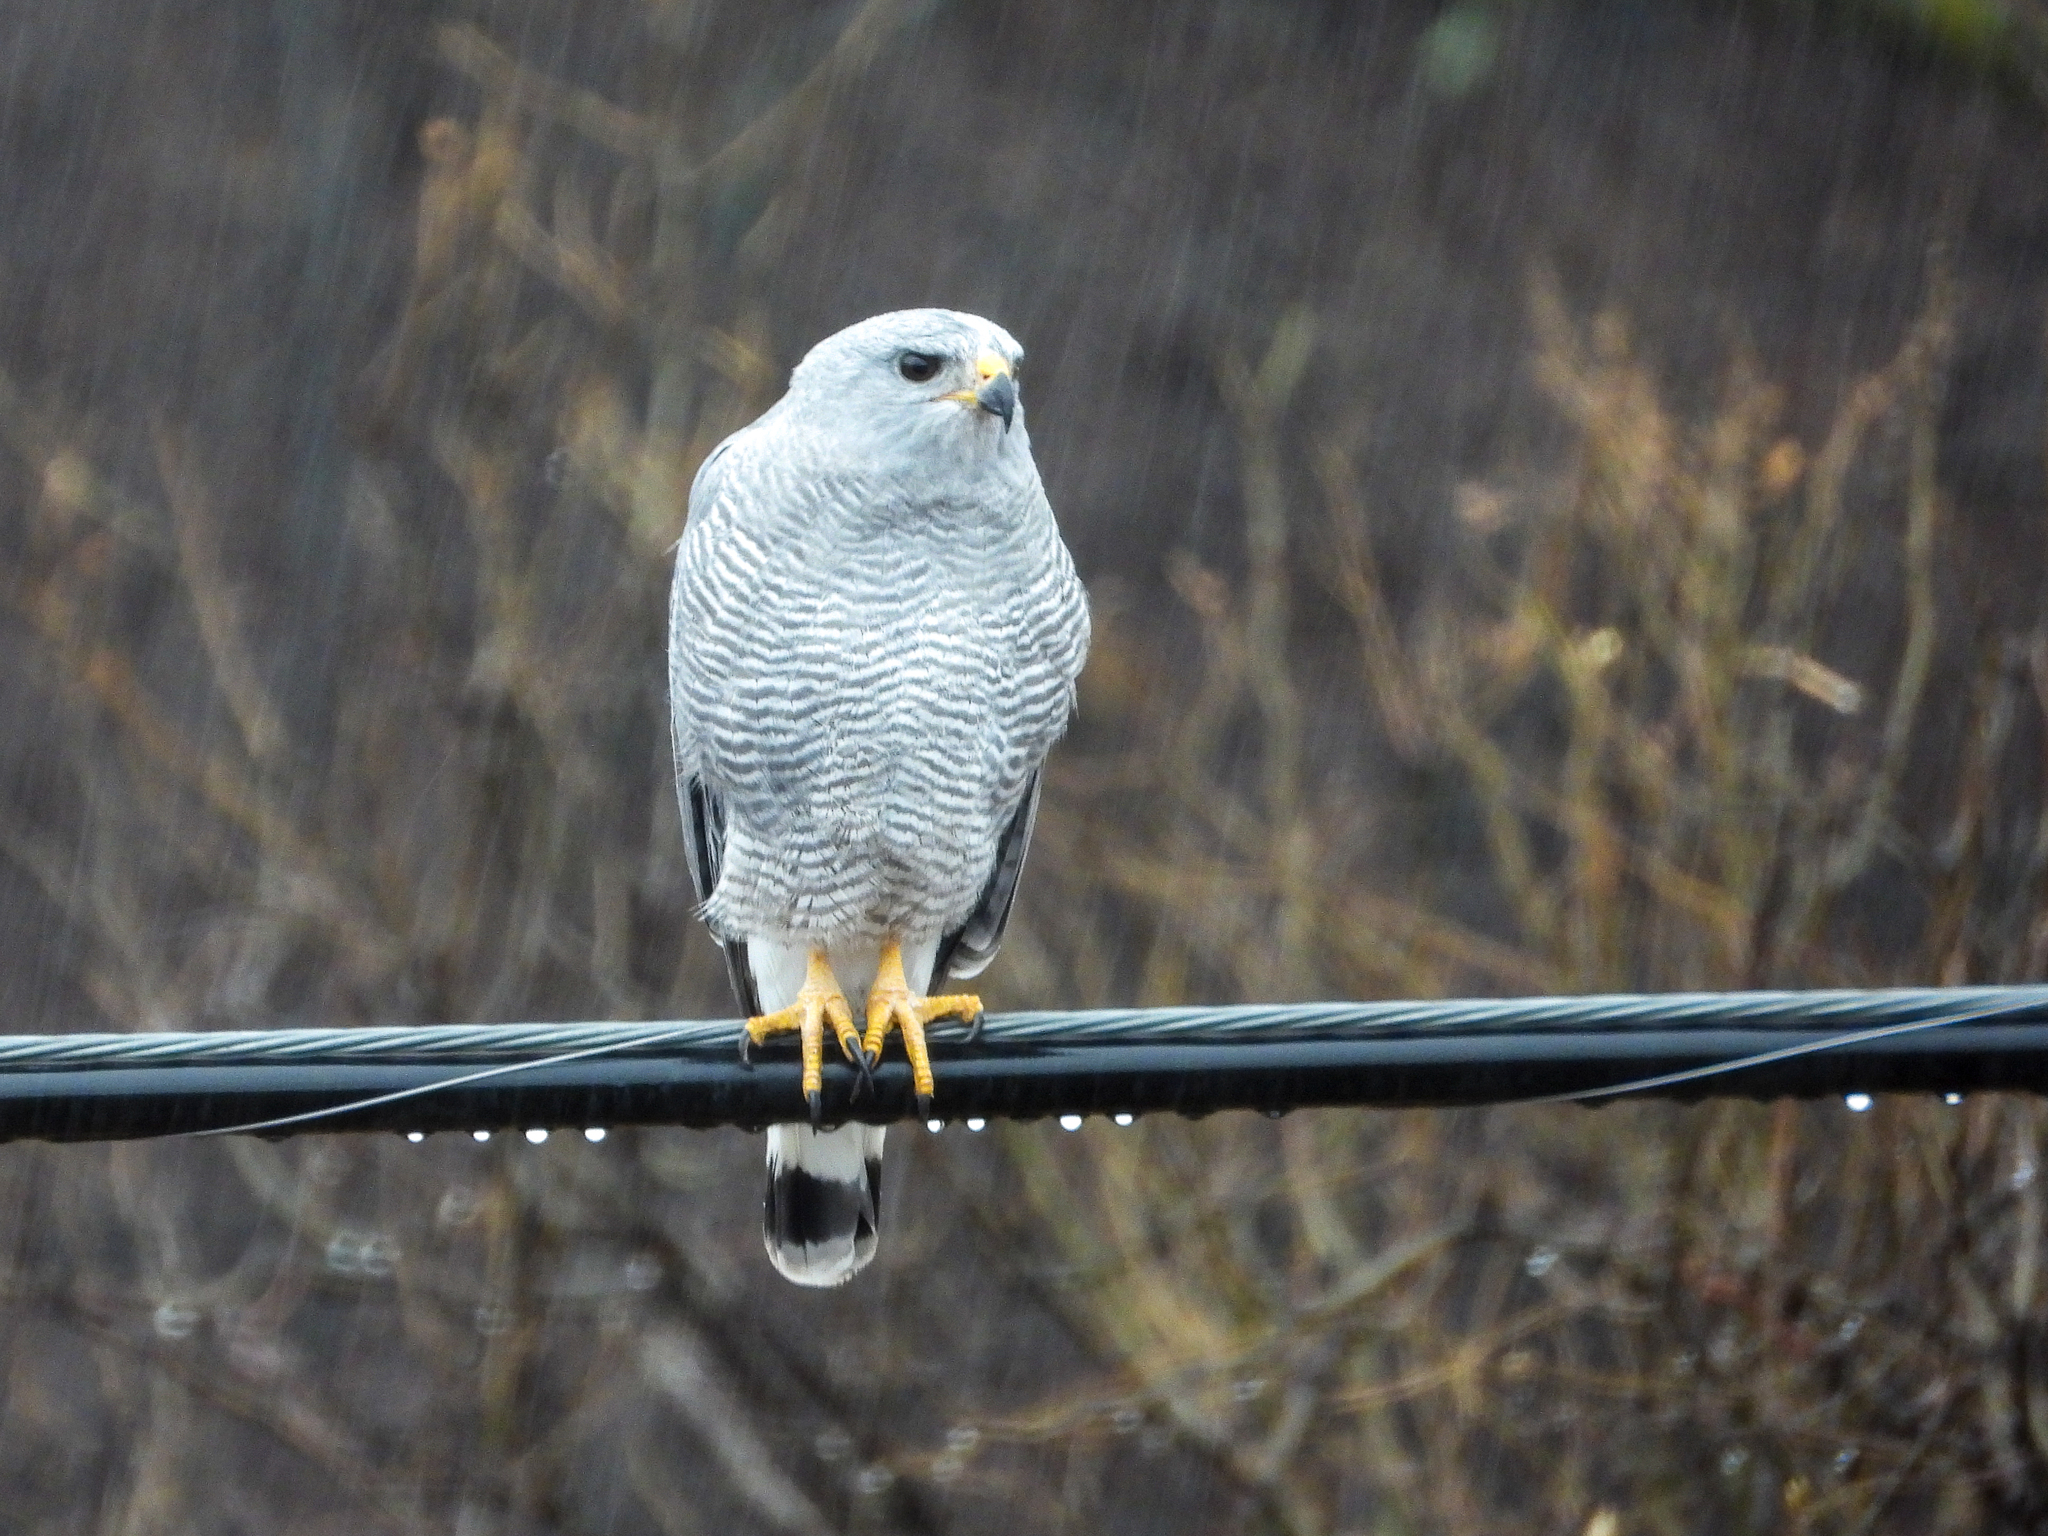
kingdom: Animalia
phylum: Chordata
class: Aves
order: Accipitriformes
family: Accipitridae
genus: Buteo
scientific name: Buteo nitidus
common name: Grey-lined hawk
